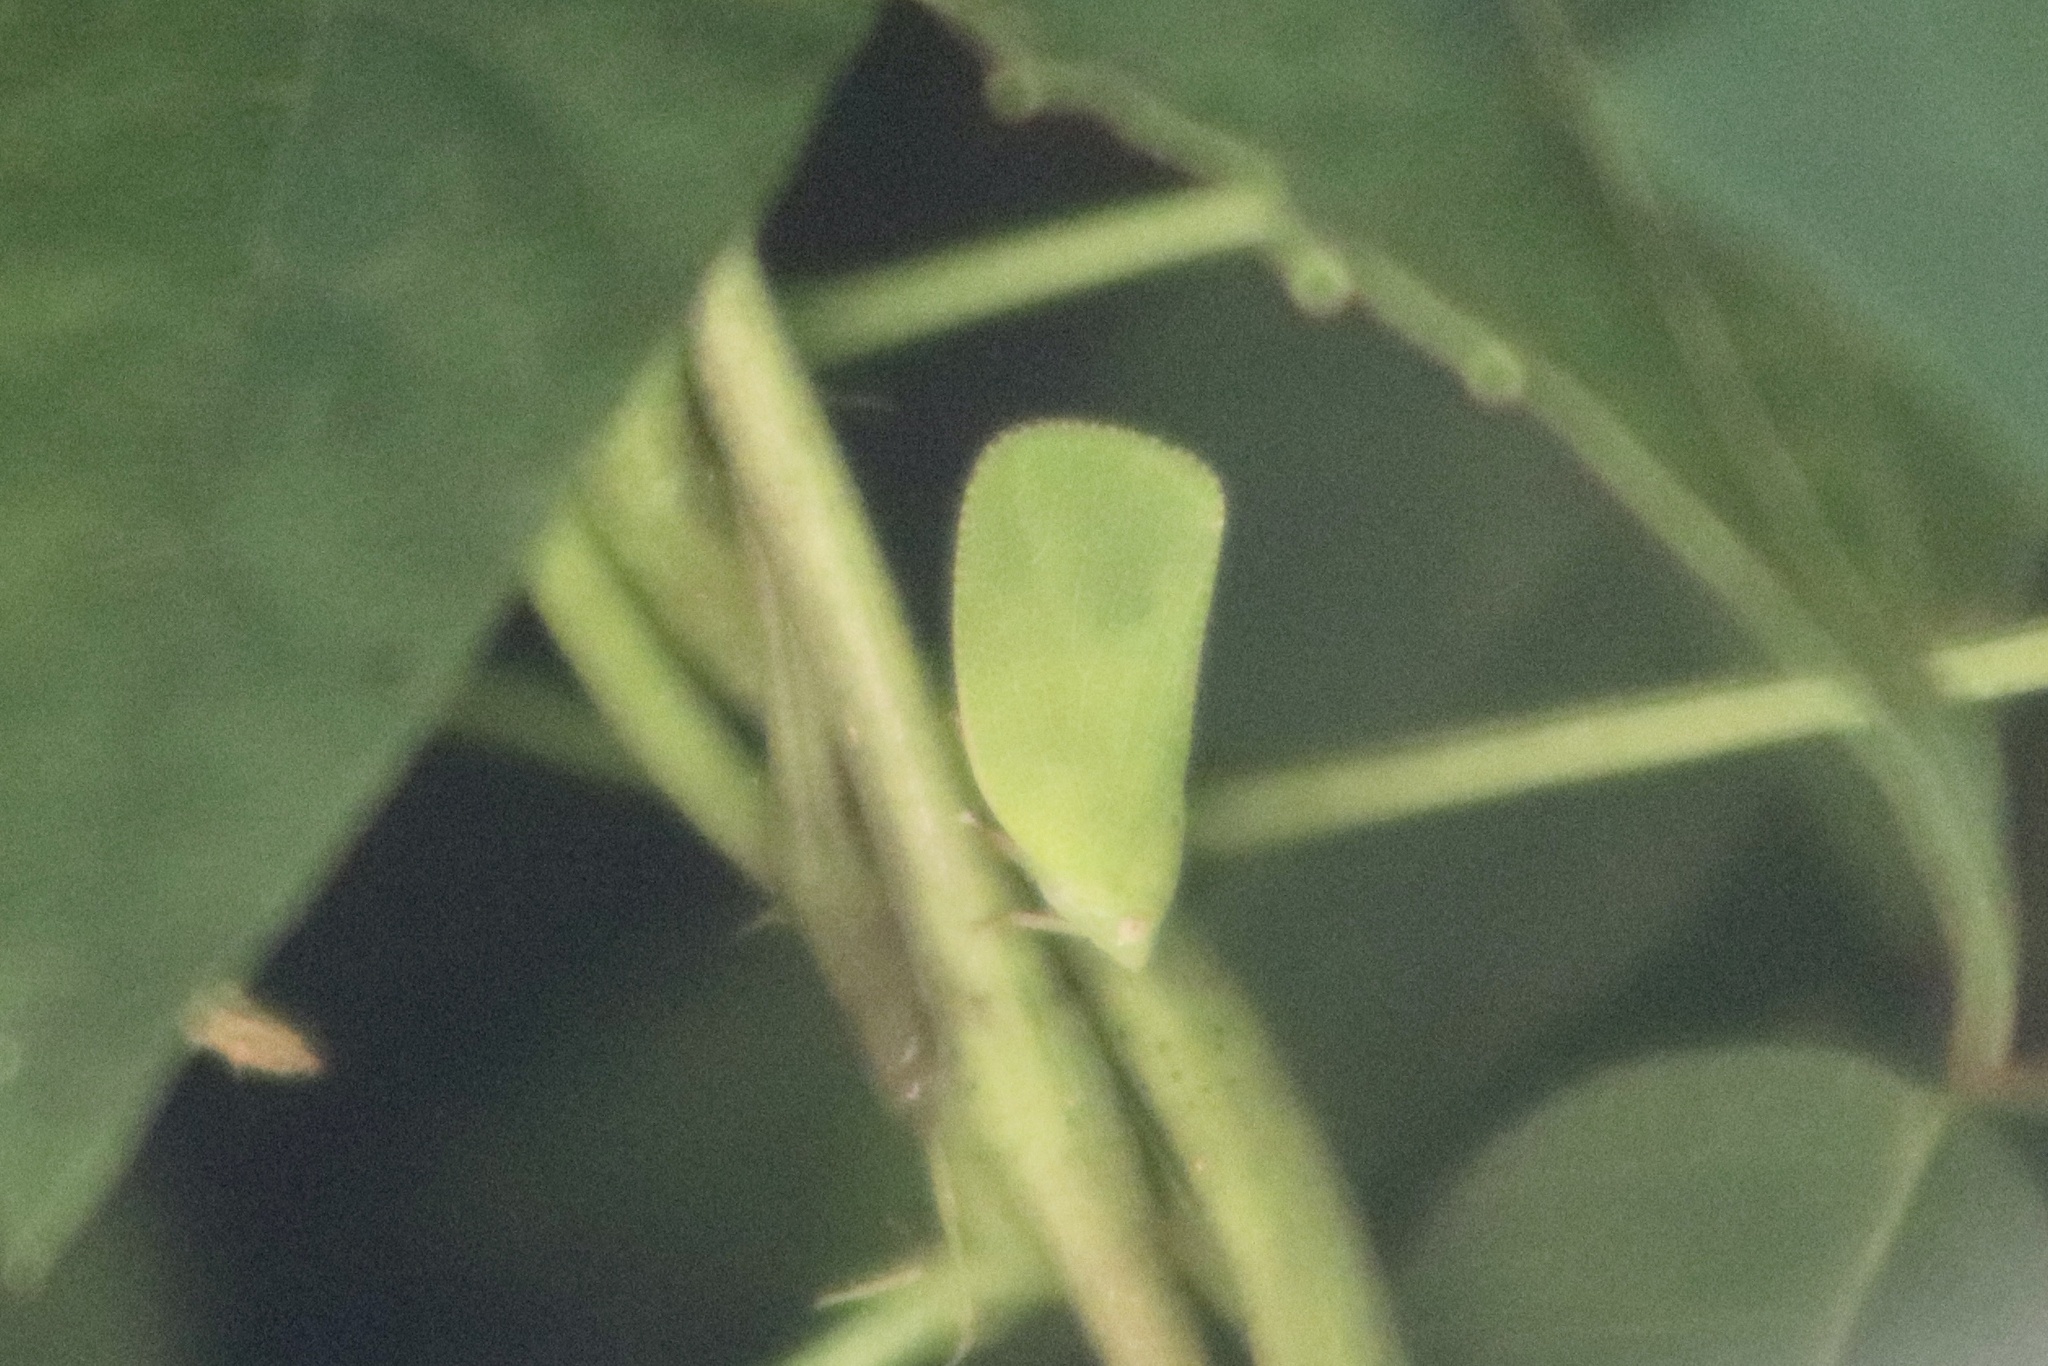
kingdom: Animalia
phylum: Arthropoda
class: Insecta
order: Hemiptera
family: Acanaloniidae
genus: Acanalonia
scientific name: Acanalonia conica
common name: Green cone-headed planthopper
